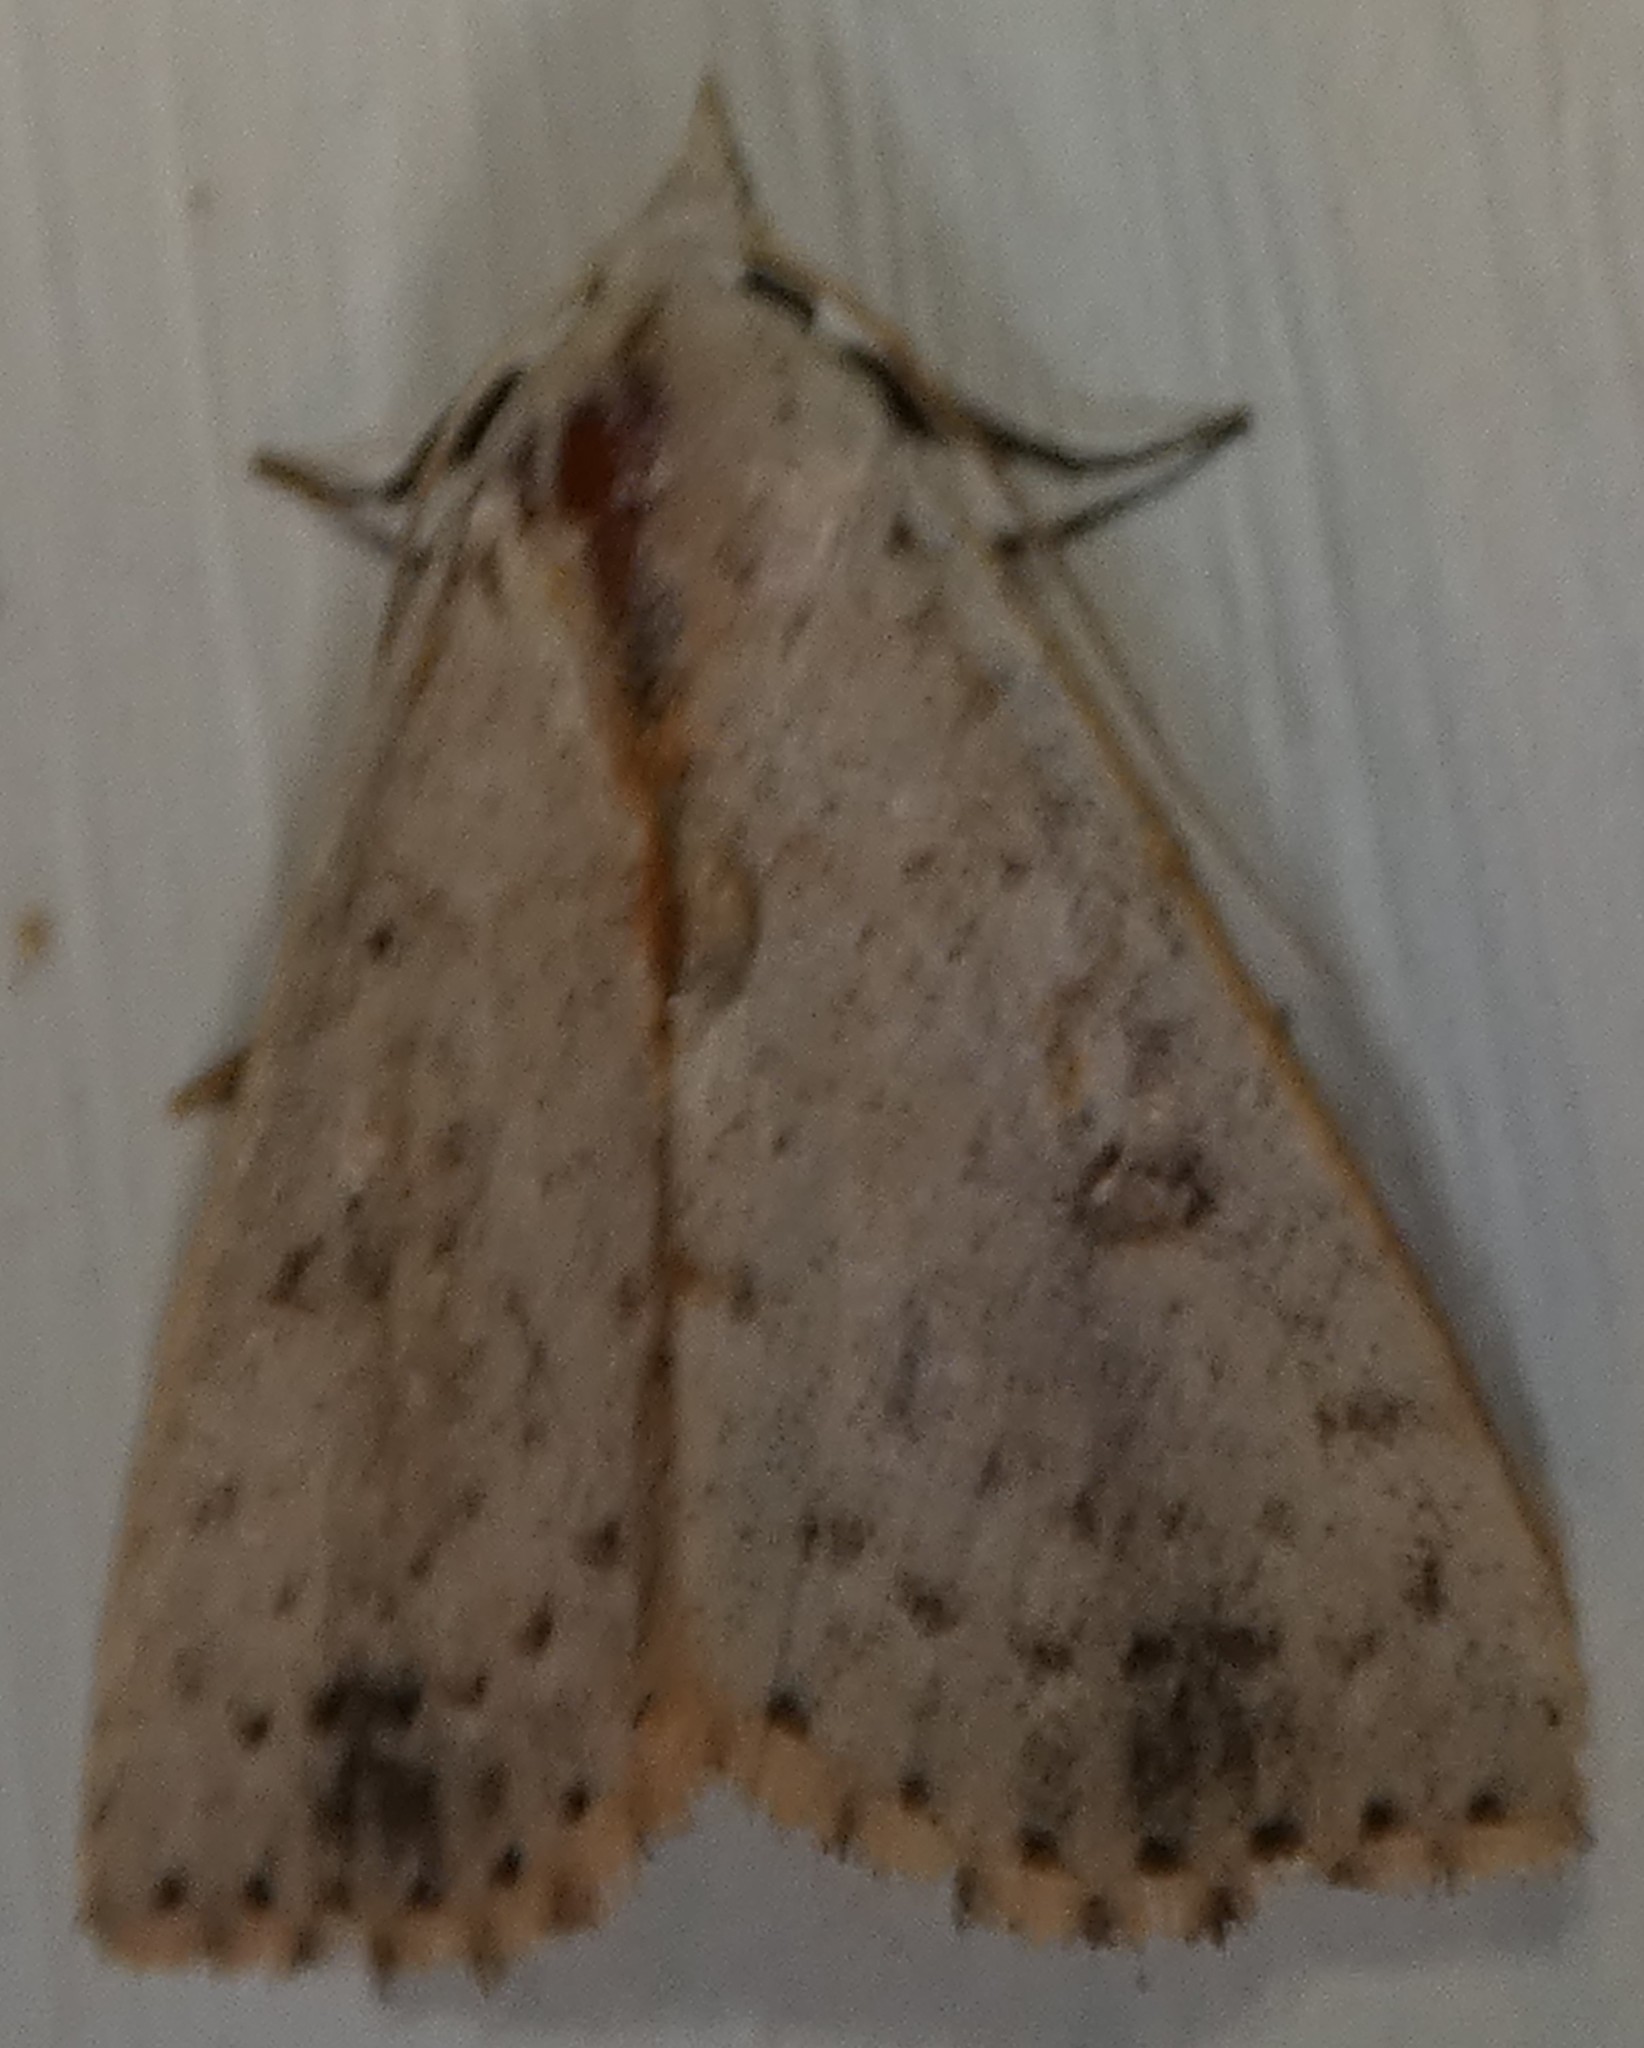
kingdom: Animalia
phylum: Arthropoda
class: Insecta
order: Lepidoptera
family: Erebidae
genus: Scolecocampa
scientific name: Scolecocampa liburna
